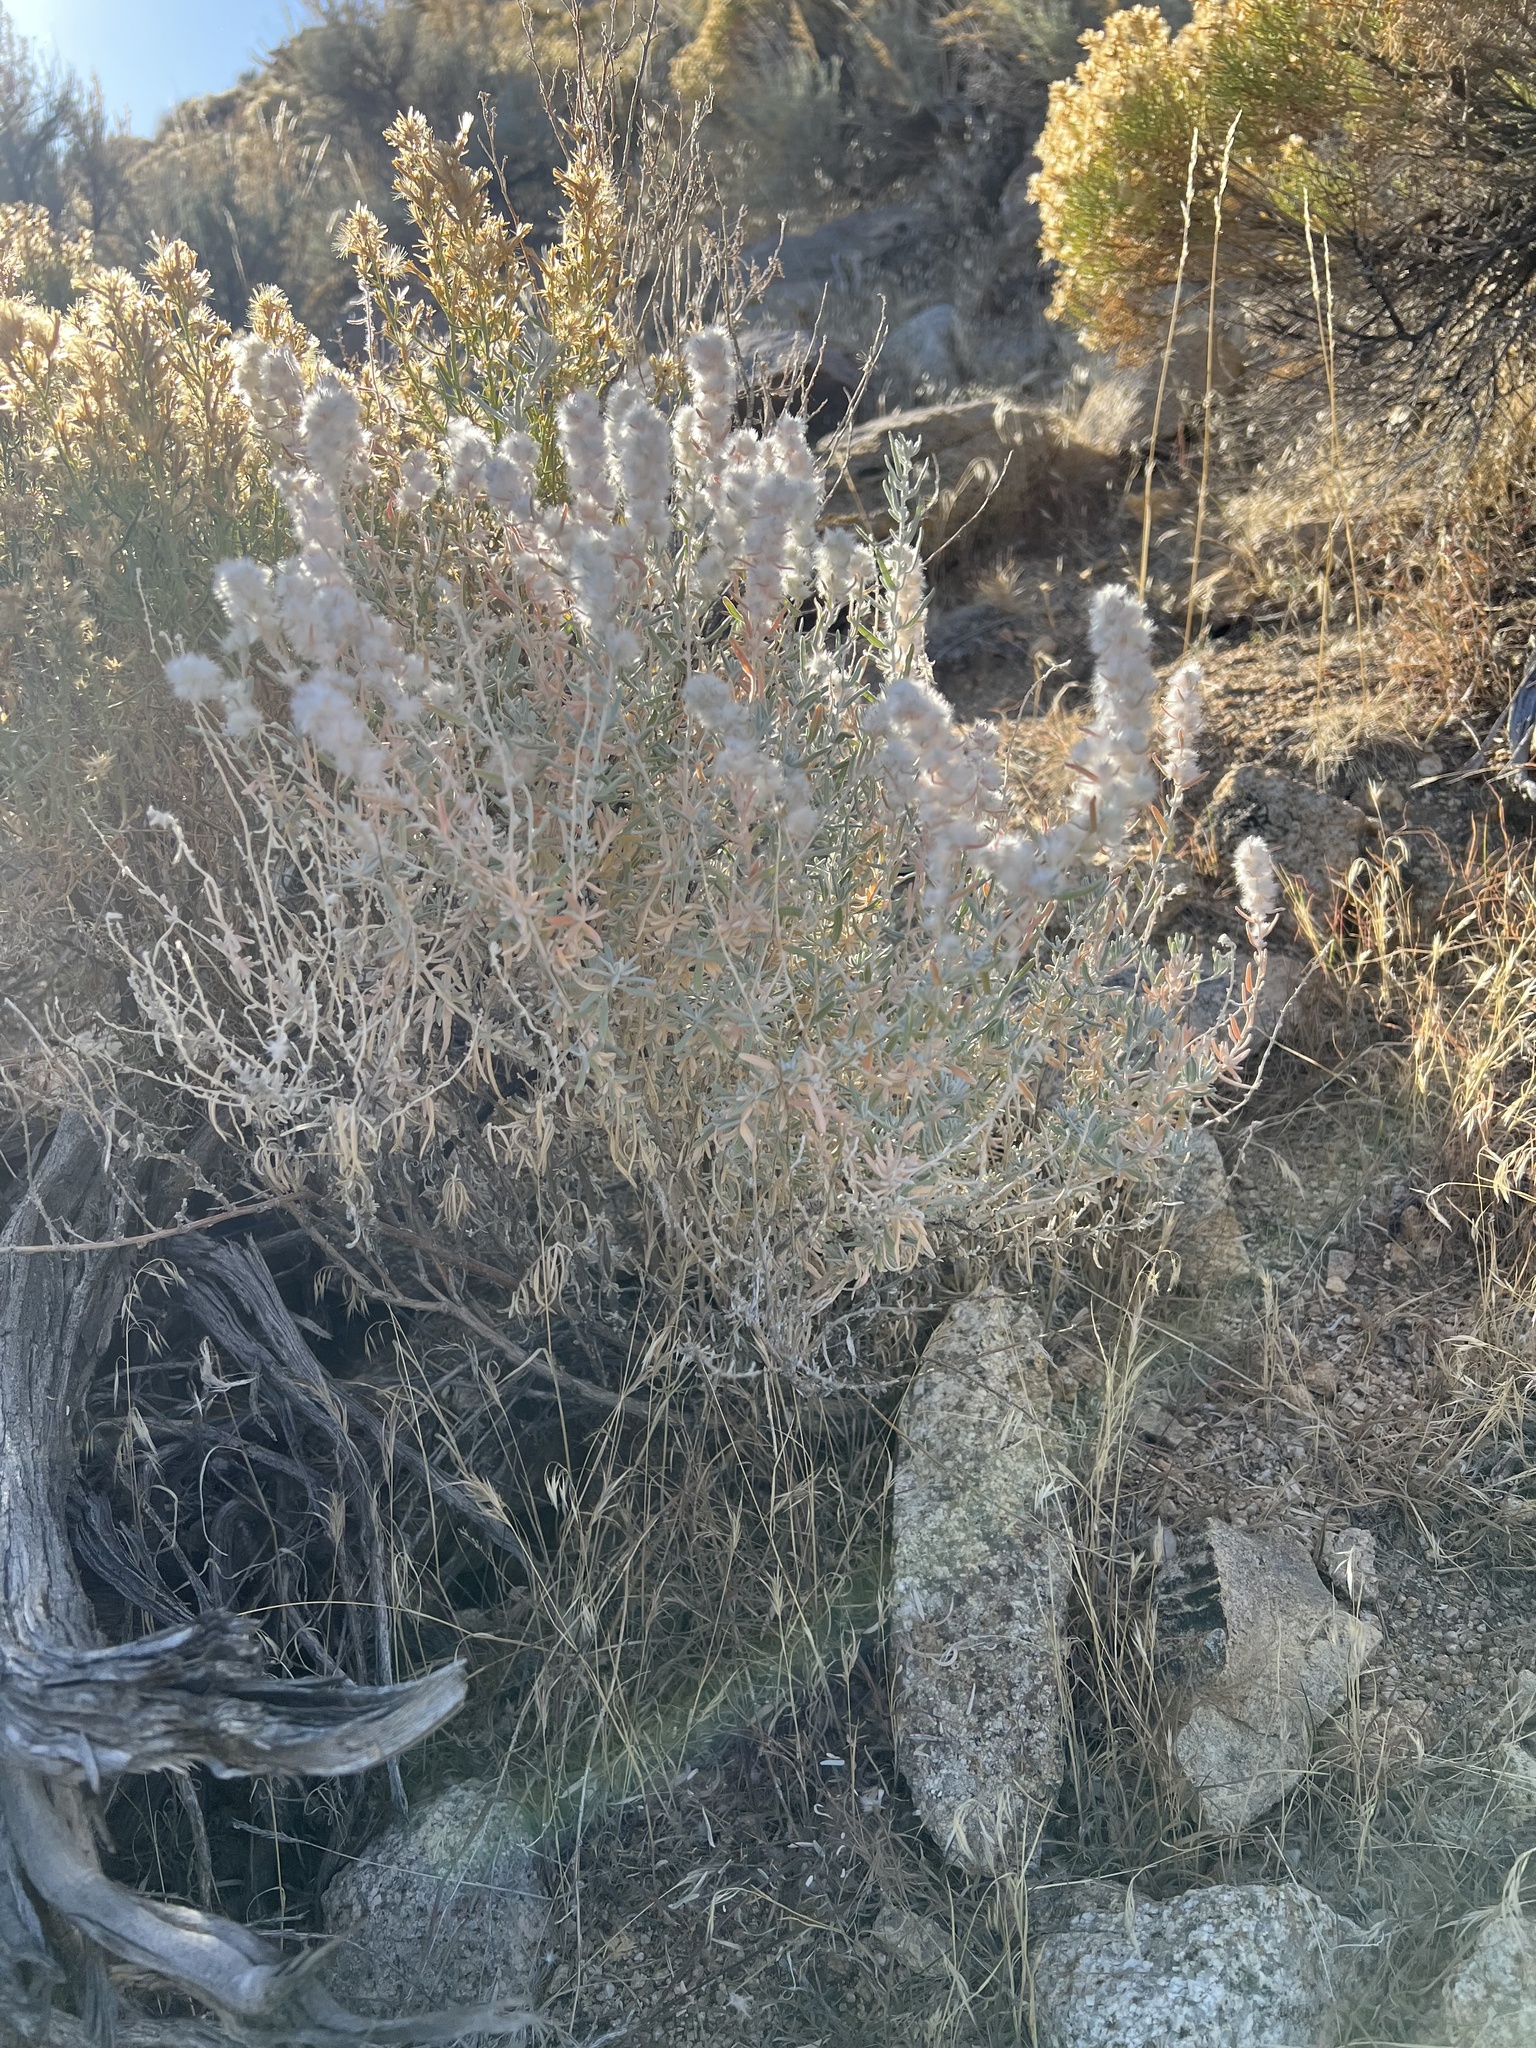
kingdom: Plantae
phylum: Tracheophyta
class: Magnoliopsida
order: Caryophyllales
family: Amaranthaceae
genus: Krascheninnikovia
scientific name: Krascheninnikovia lanata
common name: Winterfat
